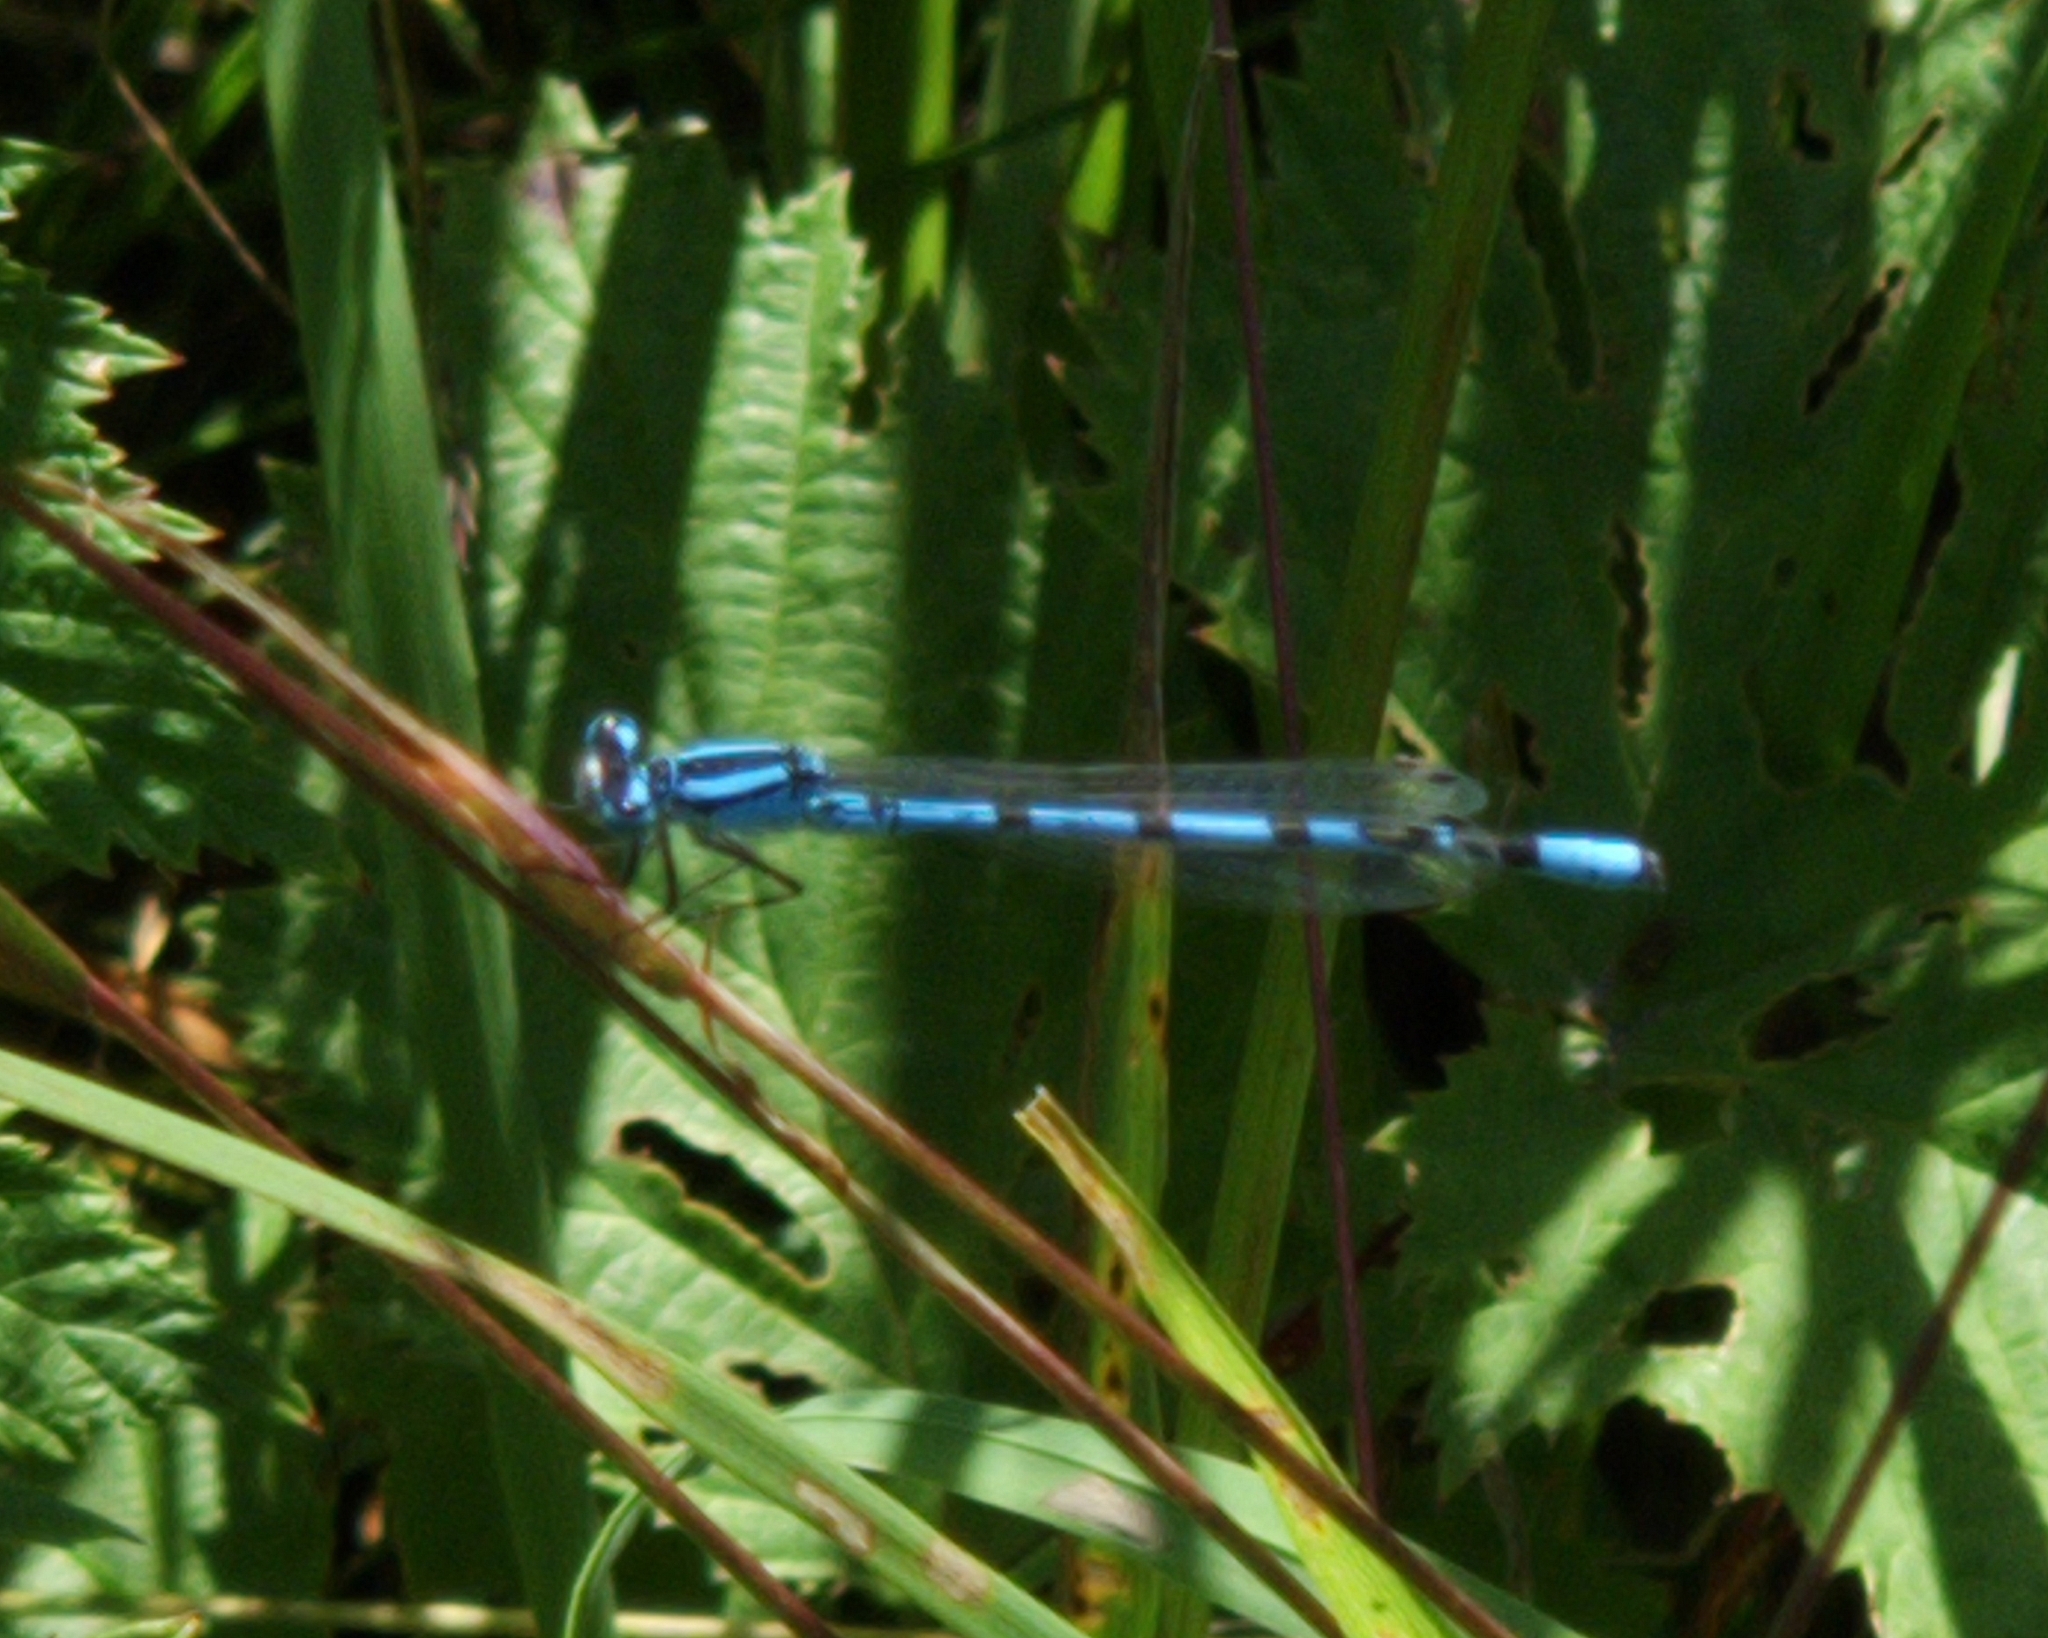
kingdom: Animalia
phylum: Arthropoda
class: Insecta
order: Odonata
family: Coenagrionidae
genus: Enallagma
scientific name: Enallagma cyathigerum
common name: Common blue damselfly
